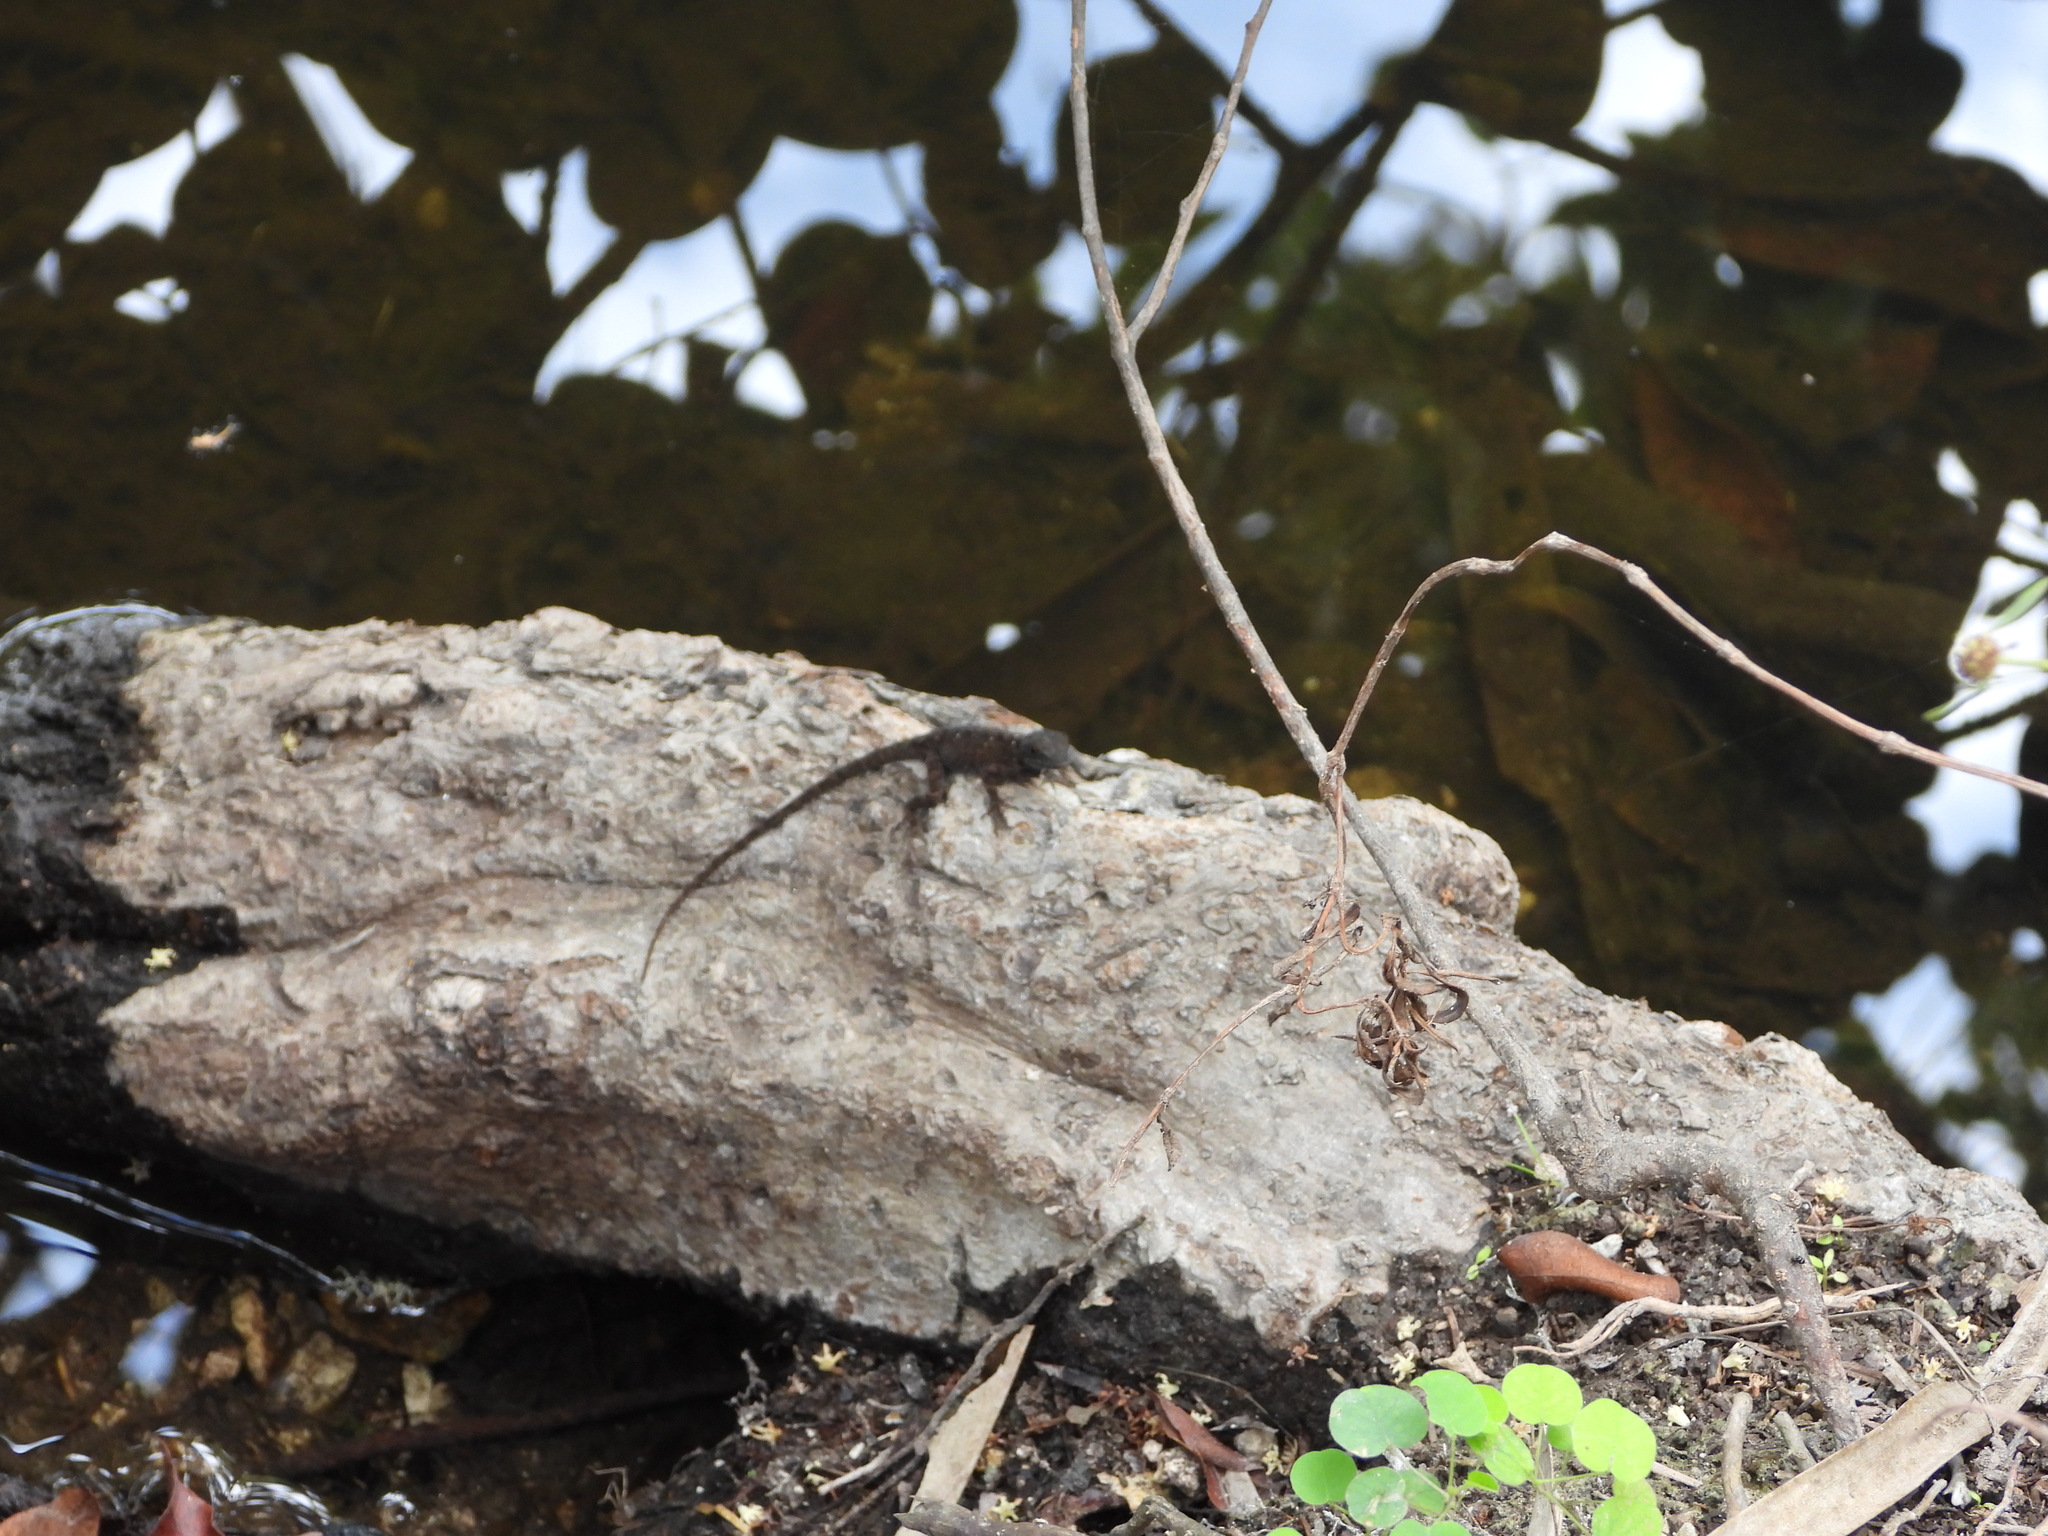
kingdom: Animalia
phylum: Chordata
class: Squamata
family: Dactyloidae
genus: Anolis
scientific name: Anolis sagrei
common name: Brown anole
